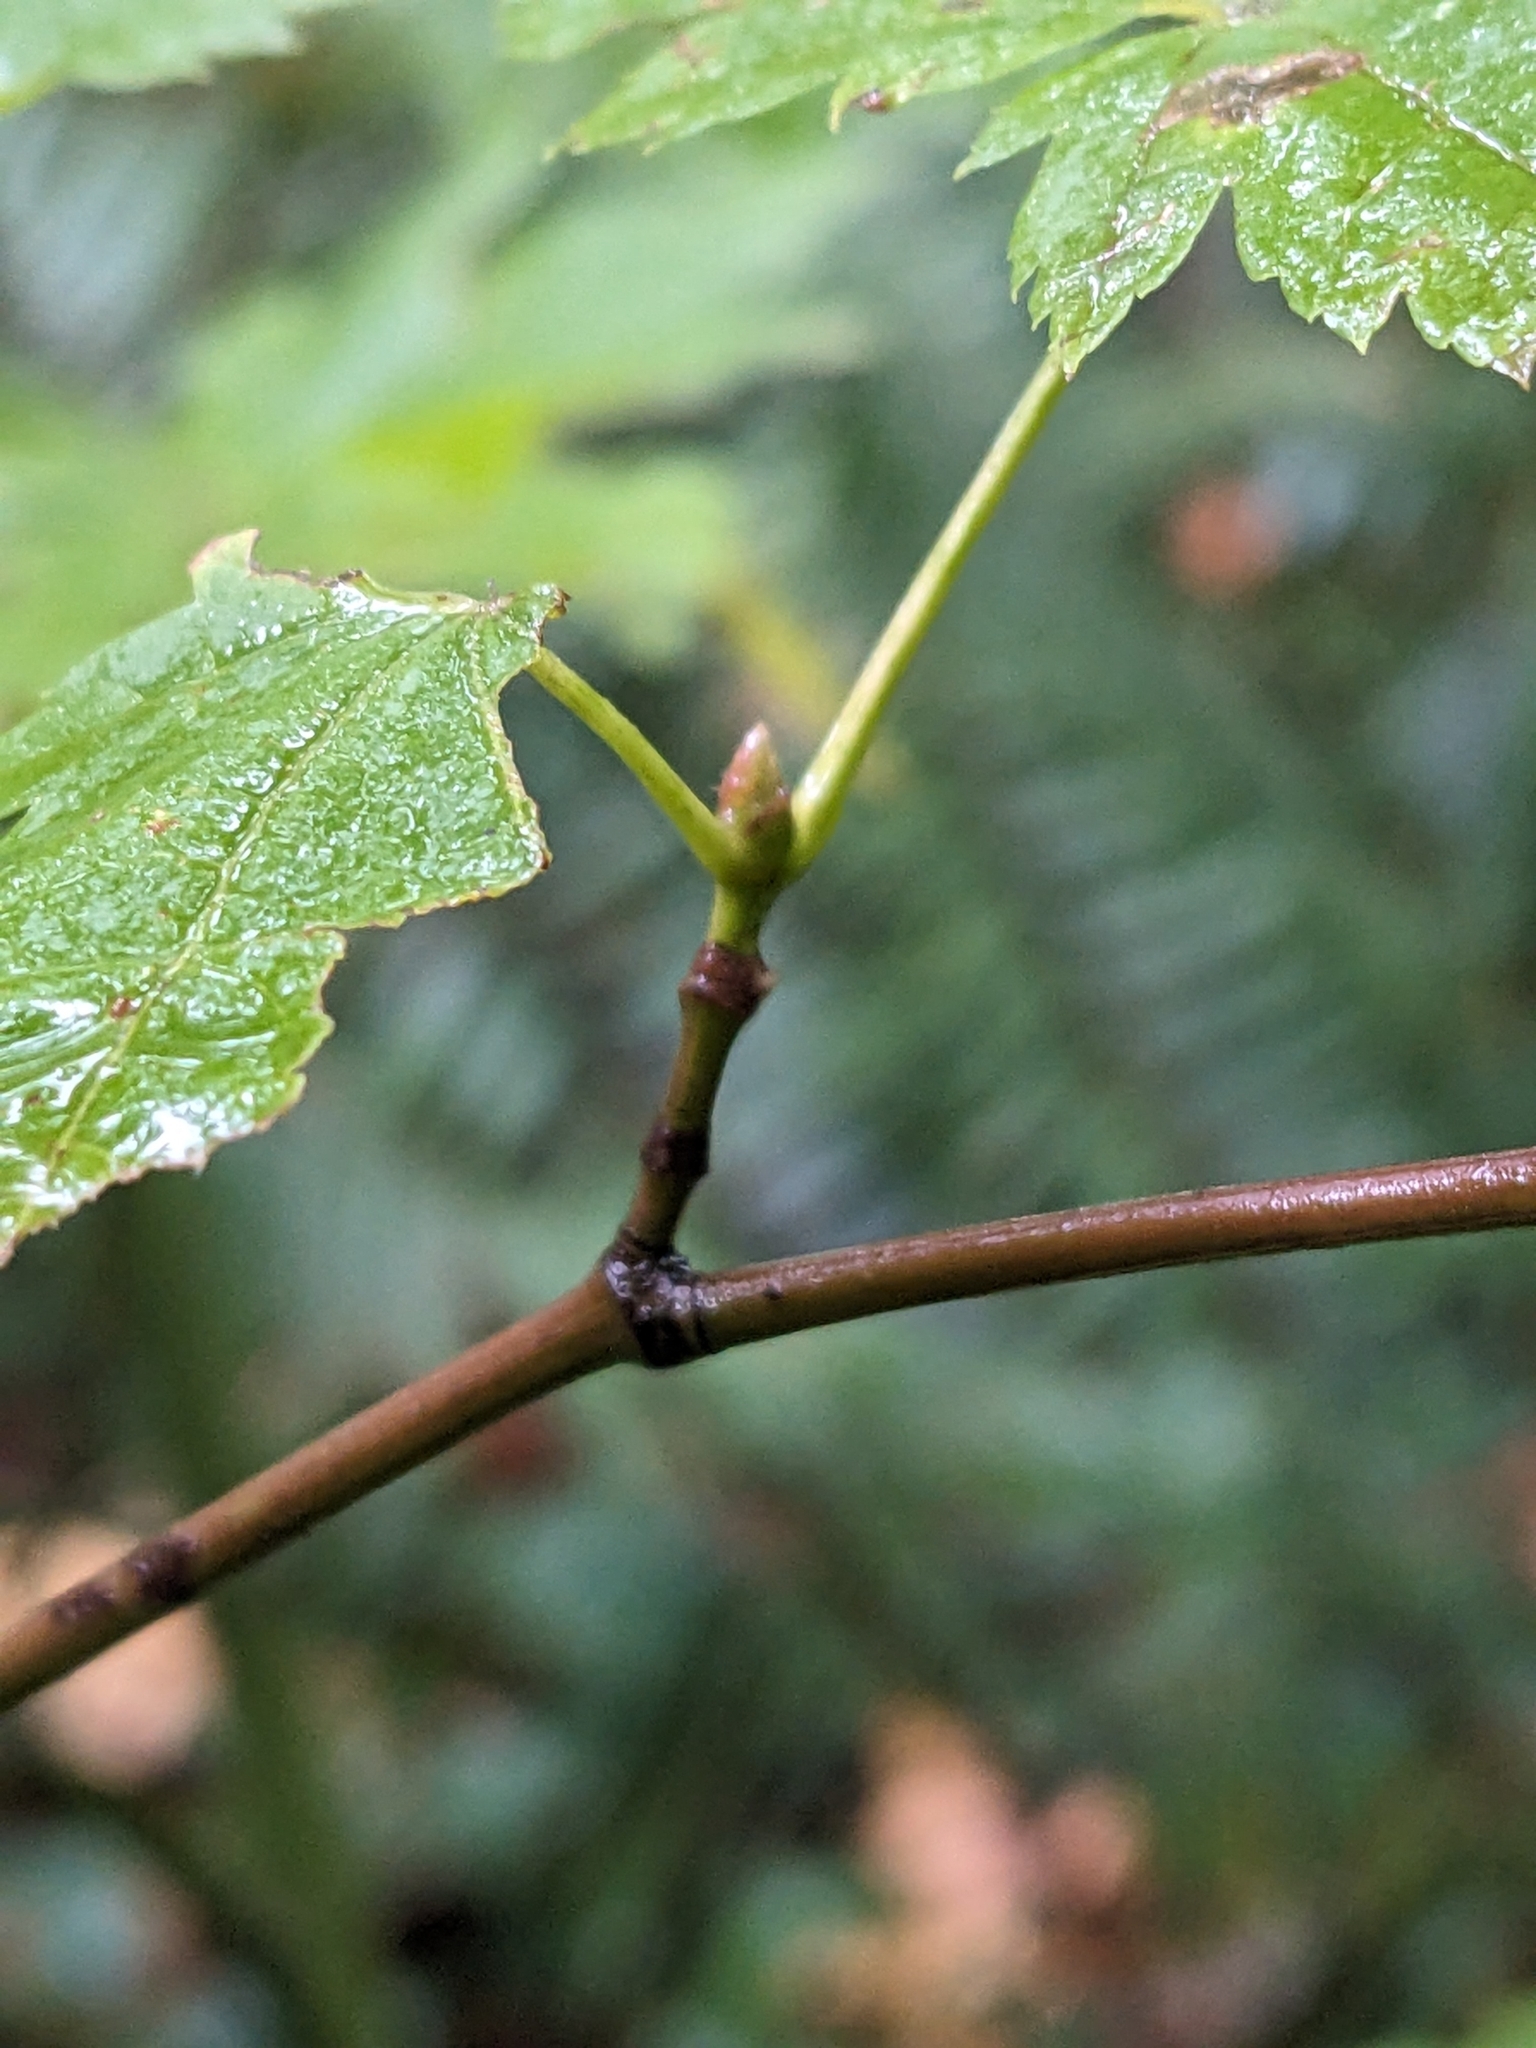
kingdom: Plantae
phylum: Tracheophyta
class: Magnoliopsida
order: Sapindales
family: Sapindaceae
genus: Acer
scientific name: Acer circinatum
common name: Vine maple
